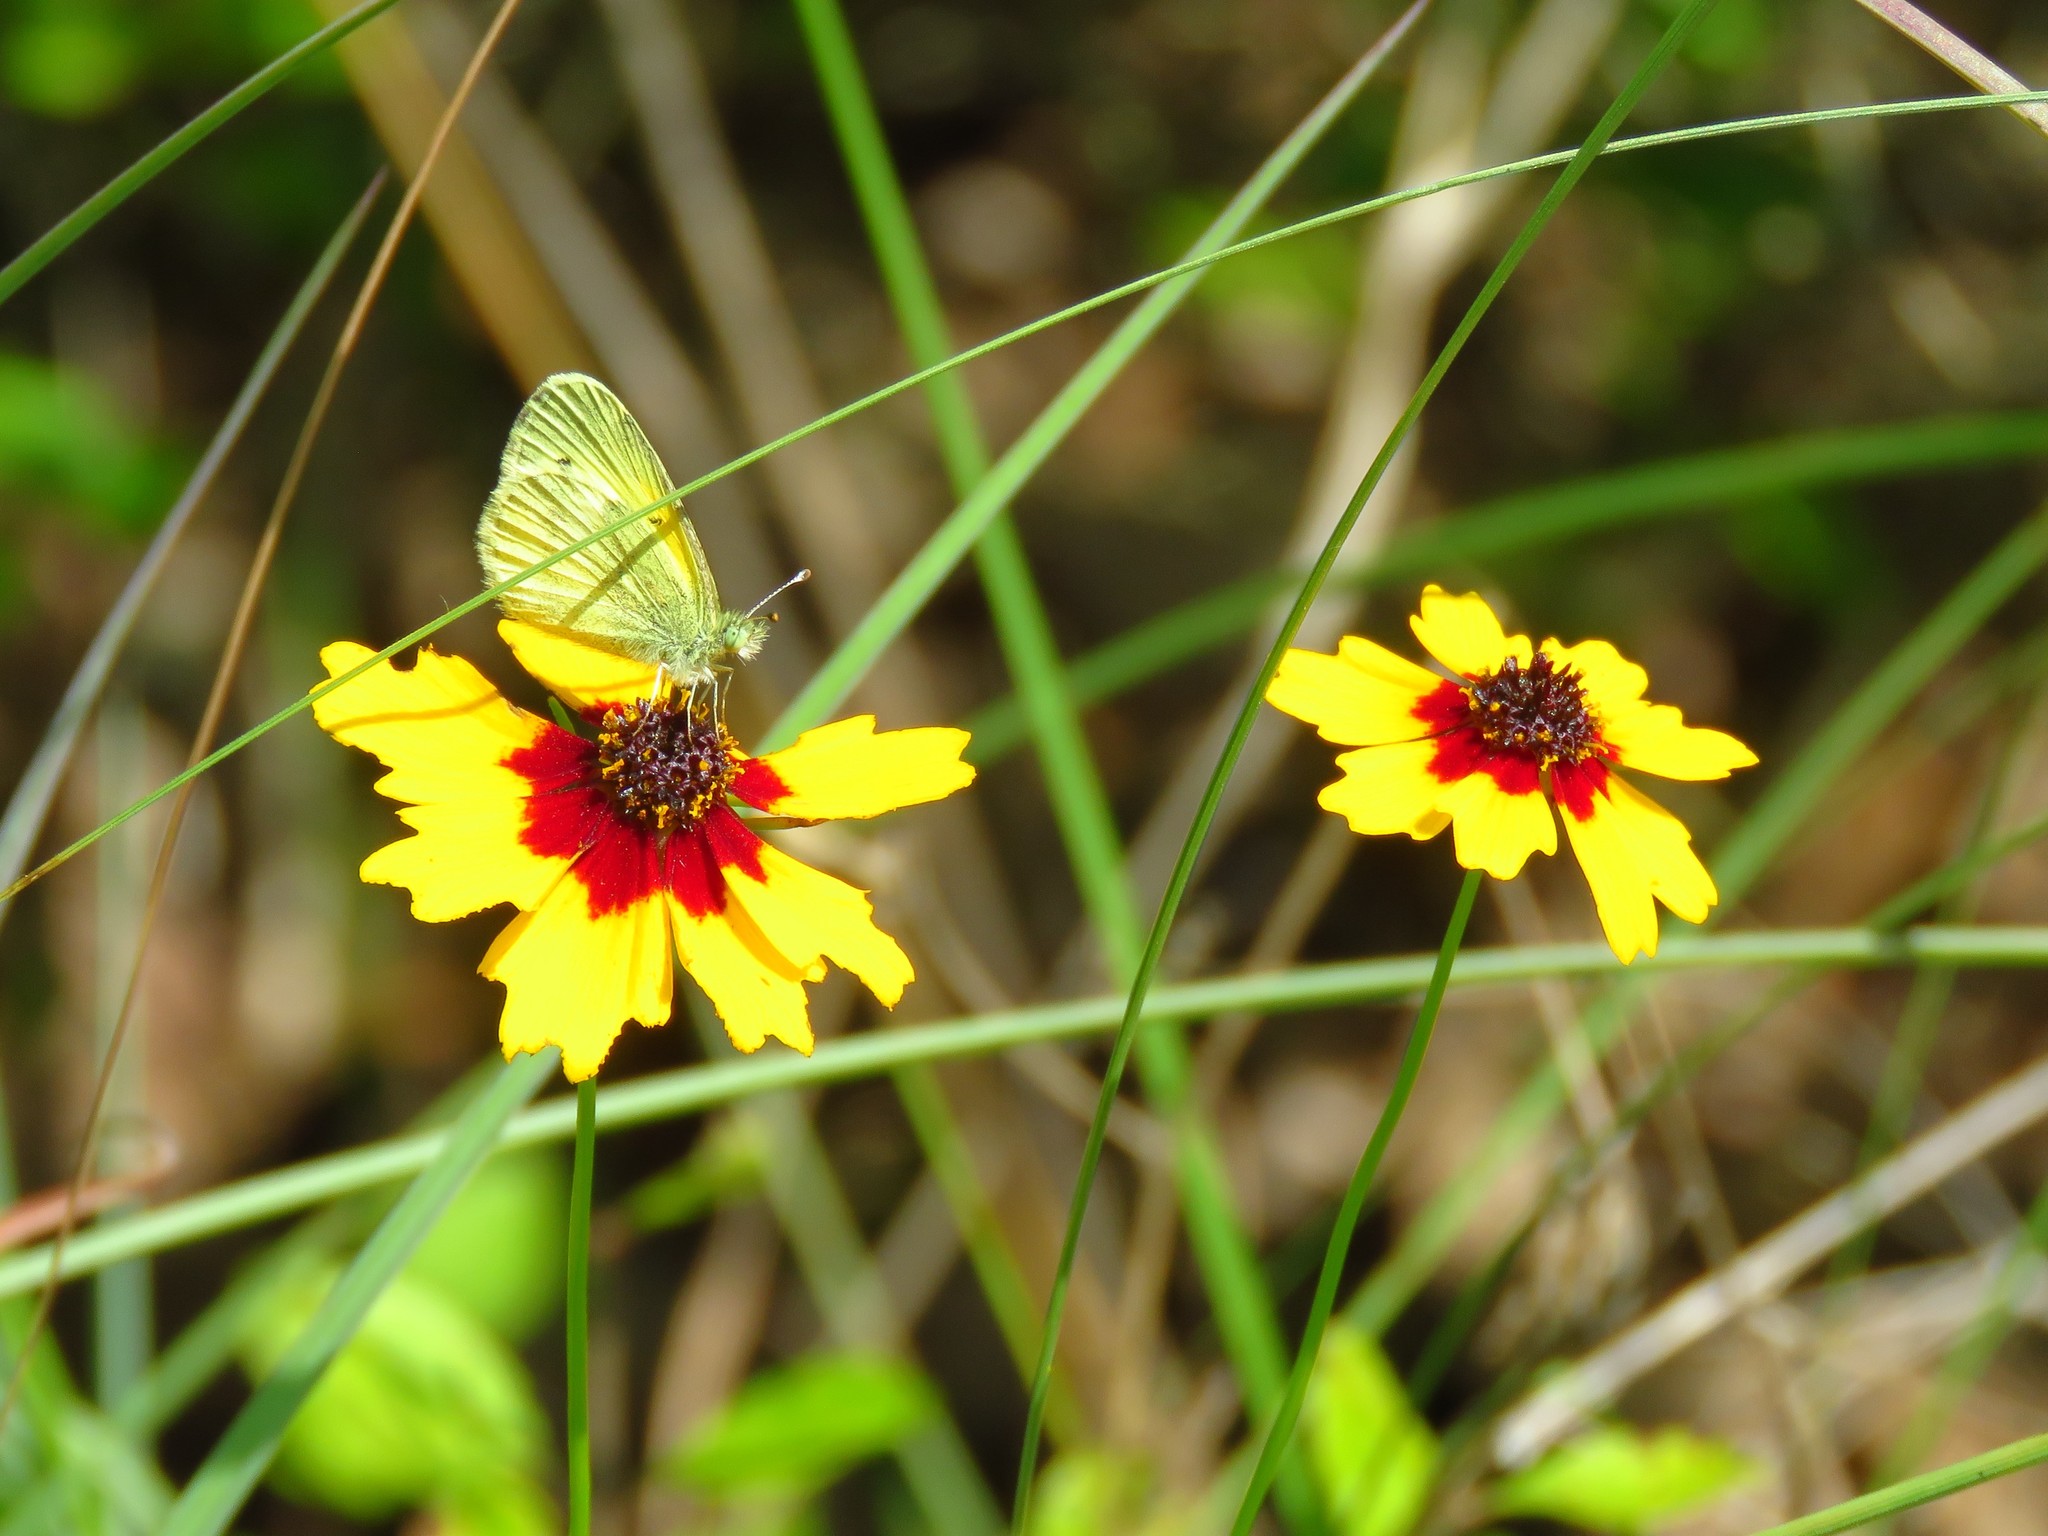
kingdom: Plantae
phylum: Tracheophyta
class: Magnoliopsida
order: Asterales
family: Asteraceae
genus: Coreopsis
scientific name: Coreopsis basalis
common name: Golden-mane coreopsis
